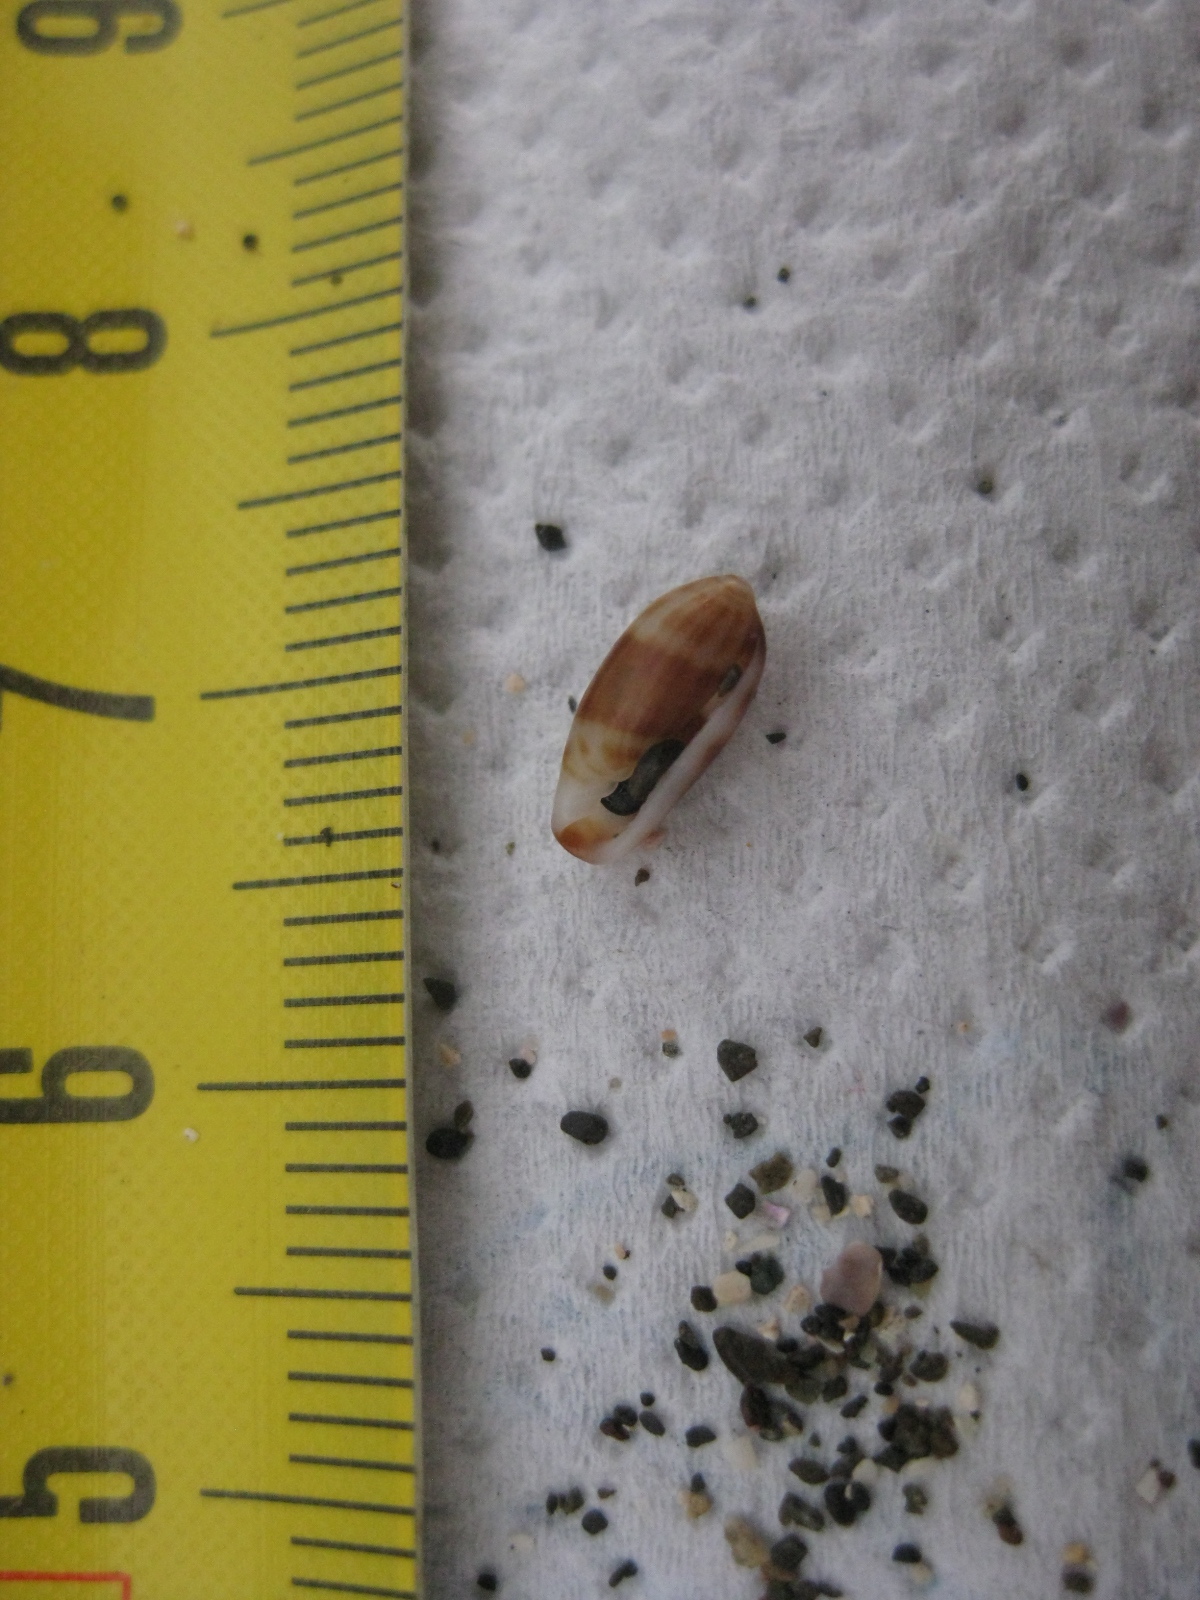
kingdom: Animalia
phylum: Mollusca
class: Gastropoda
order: Neogastropoda
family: Marginellidae
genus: Serrata
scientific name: Serrata fasciata
